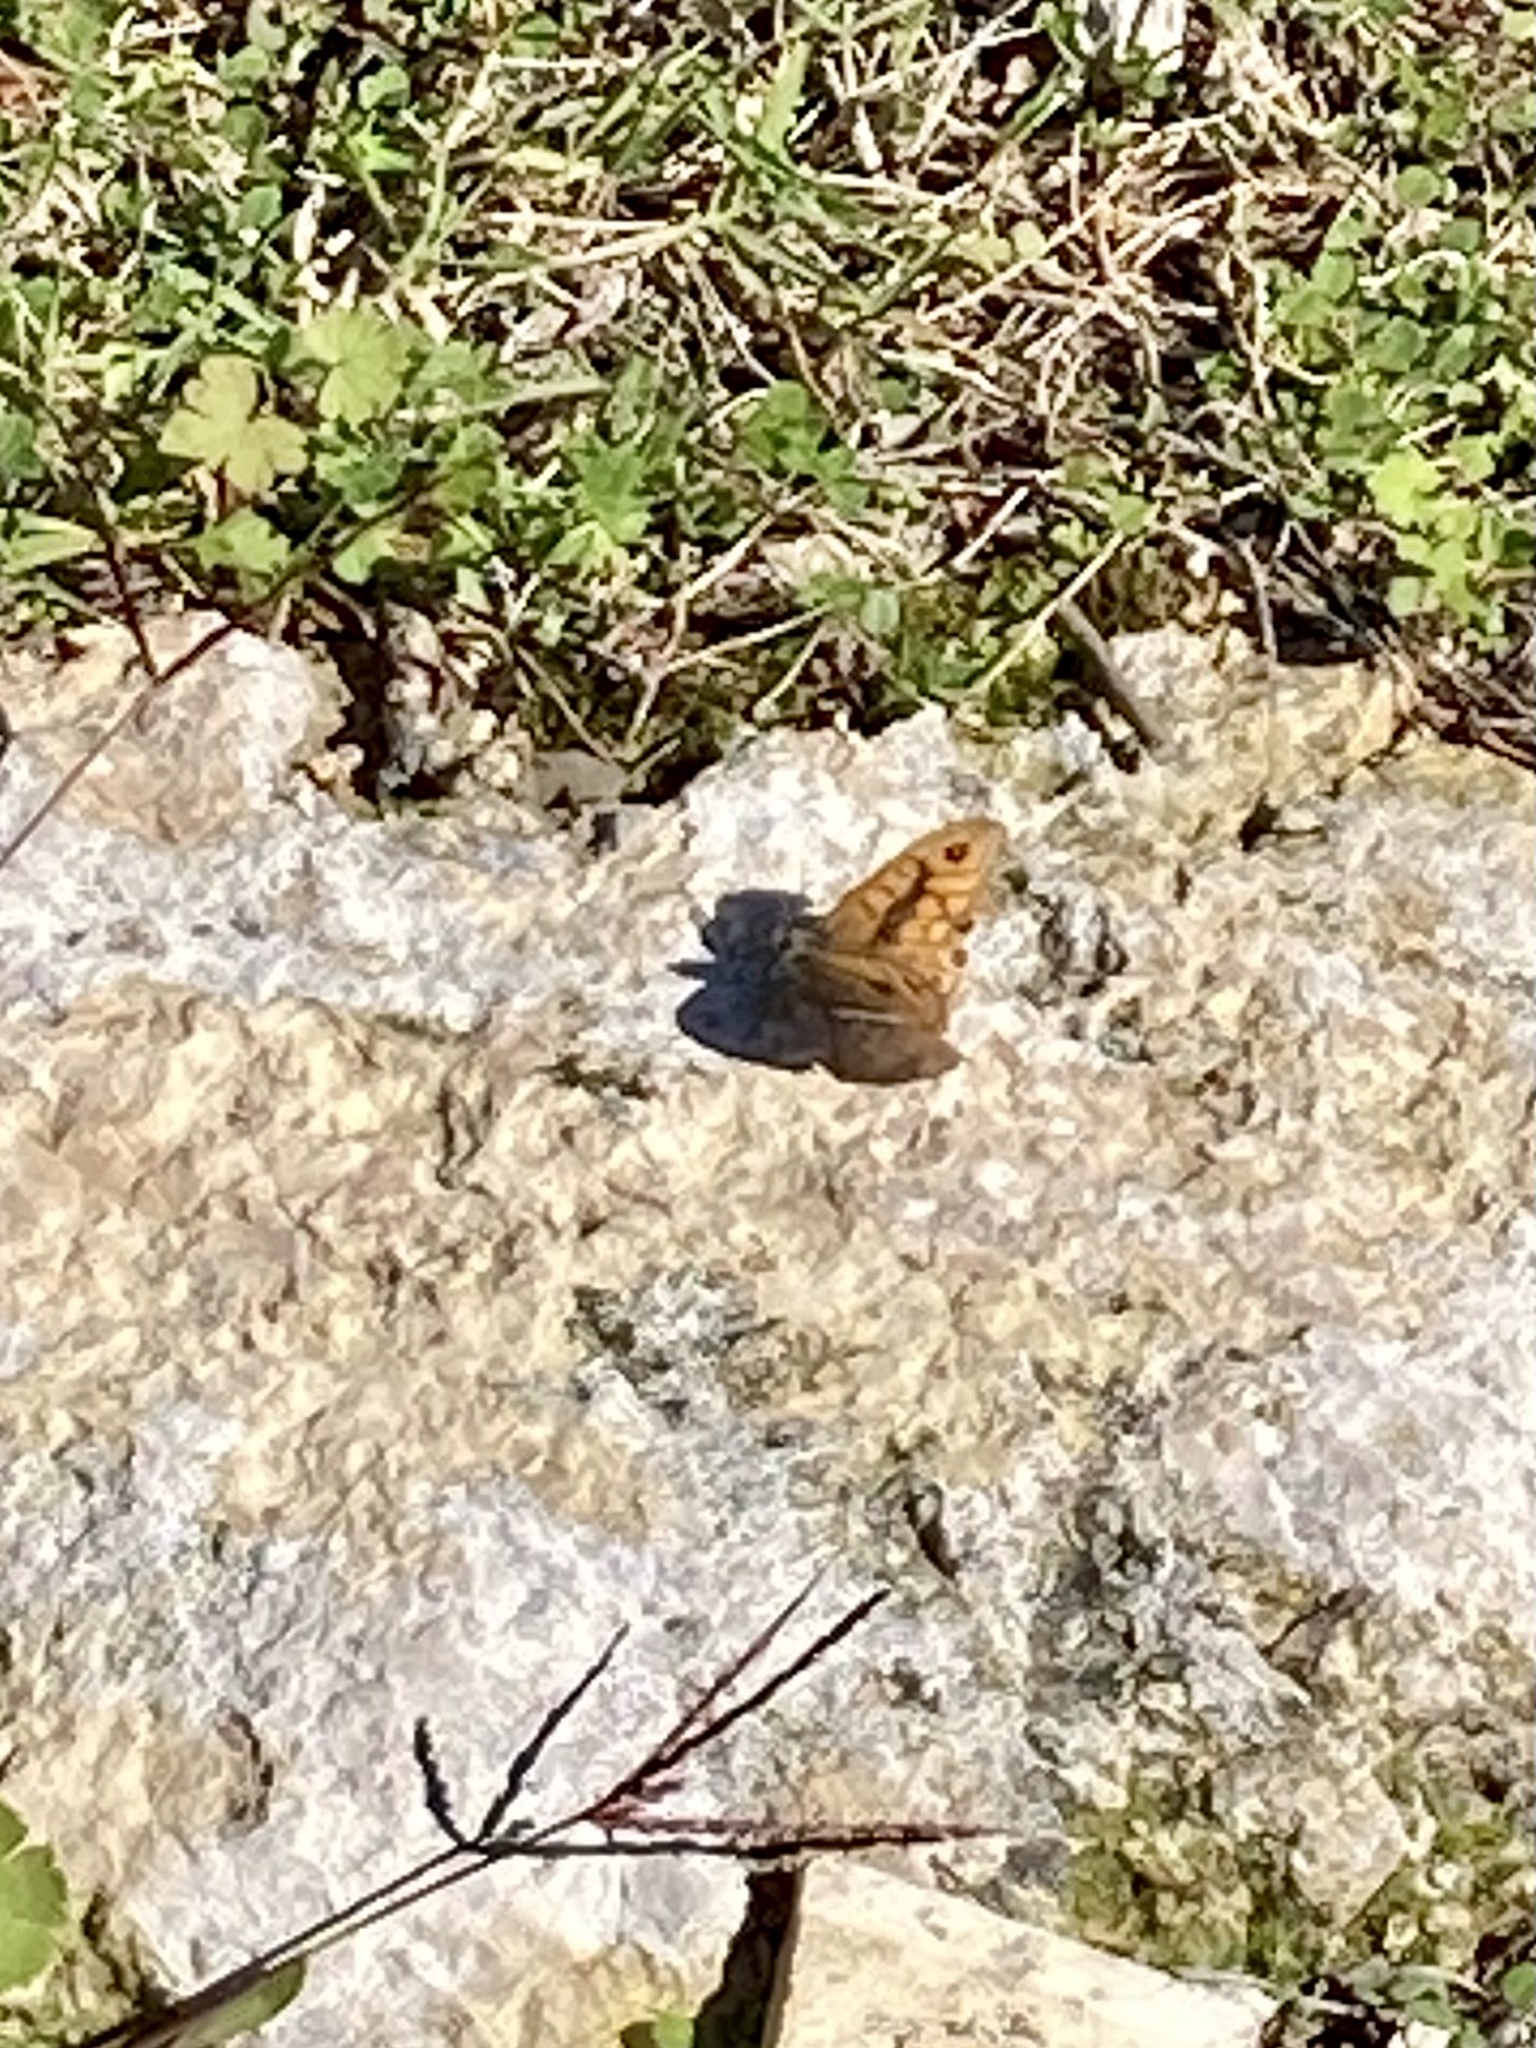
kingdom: Animalia
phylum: Arthropoda
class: Insecta
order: Lepidoptera
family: Nymphalidae
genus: Pararge
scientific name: Pararge Lasiommata megera
